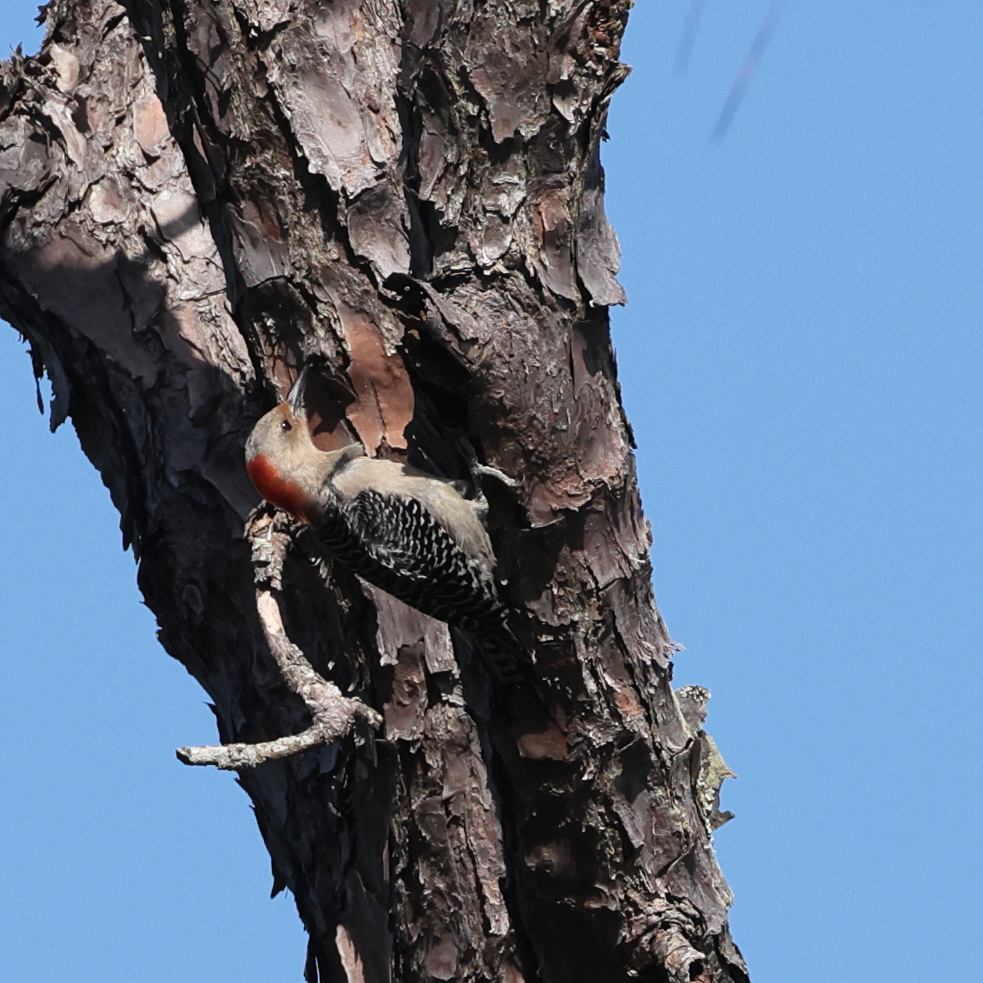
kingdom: Animalia
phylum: Chordata
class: Aves
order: Piciformes
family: Picidae
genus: Melanerpes
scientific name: Melanerpes carolinus
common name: Red-bellied woodpecker
